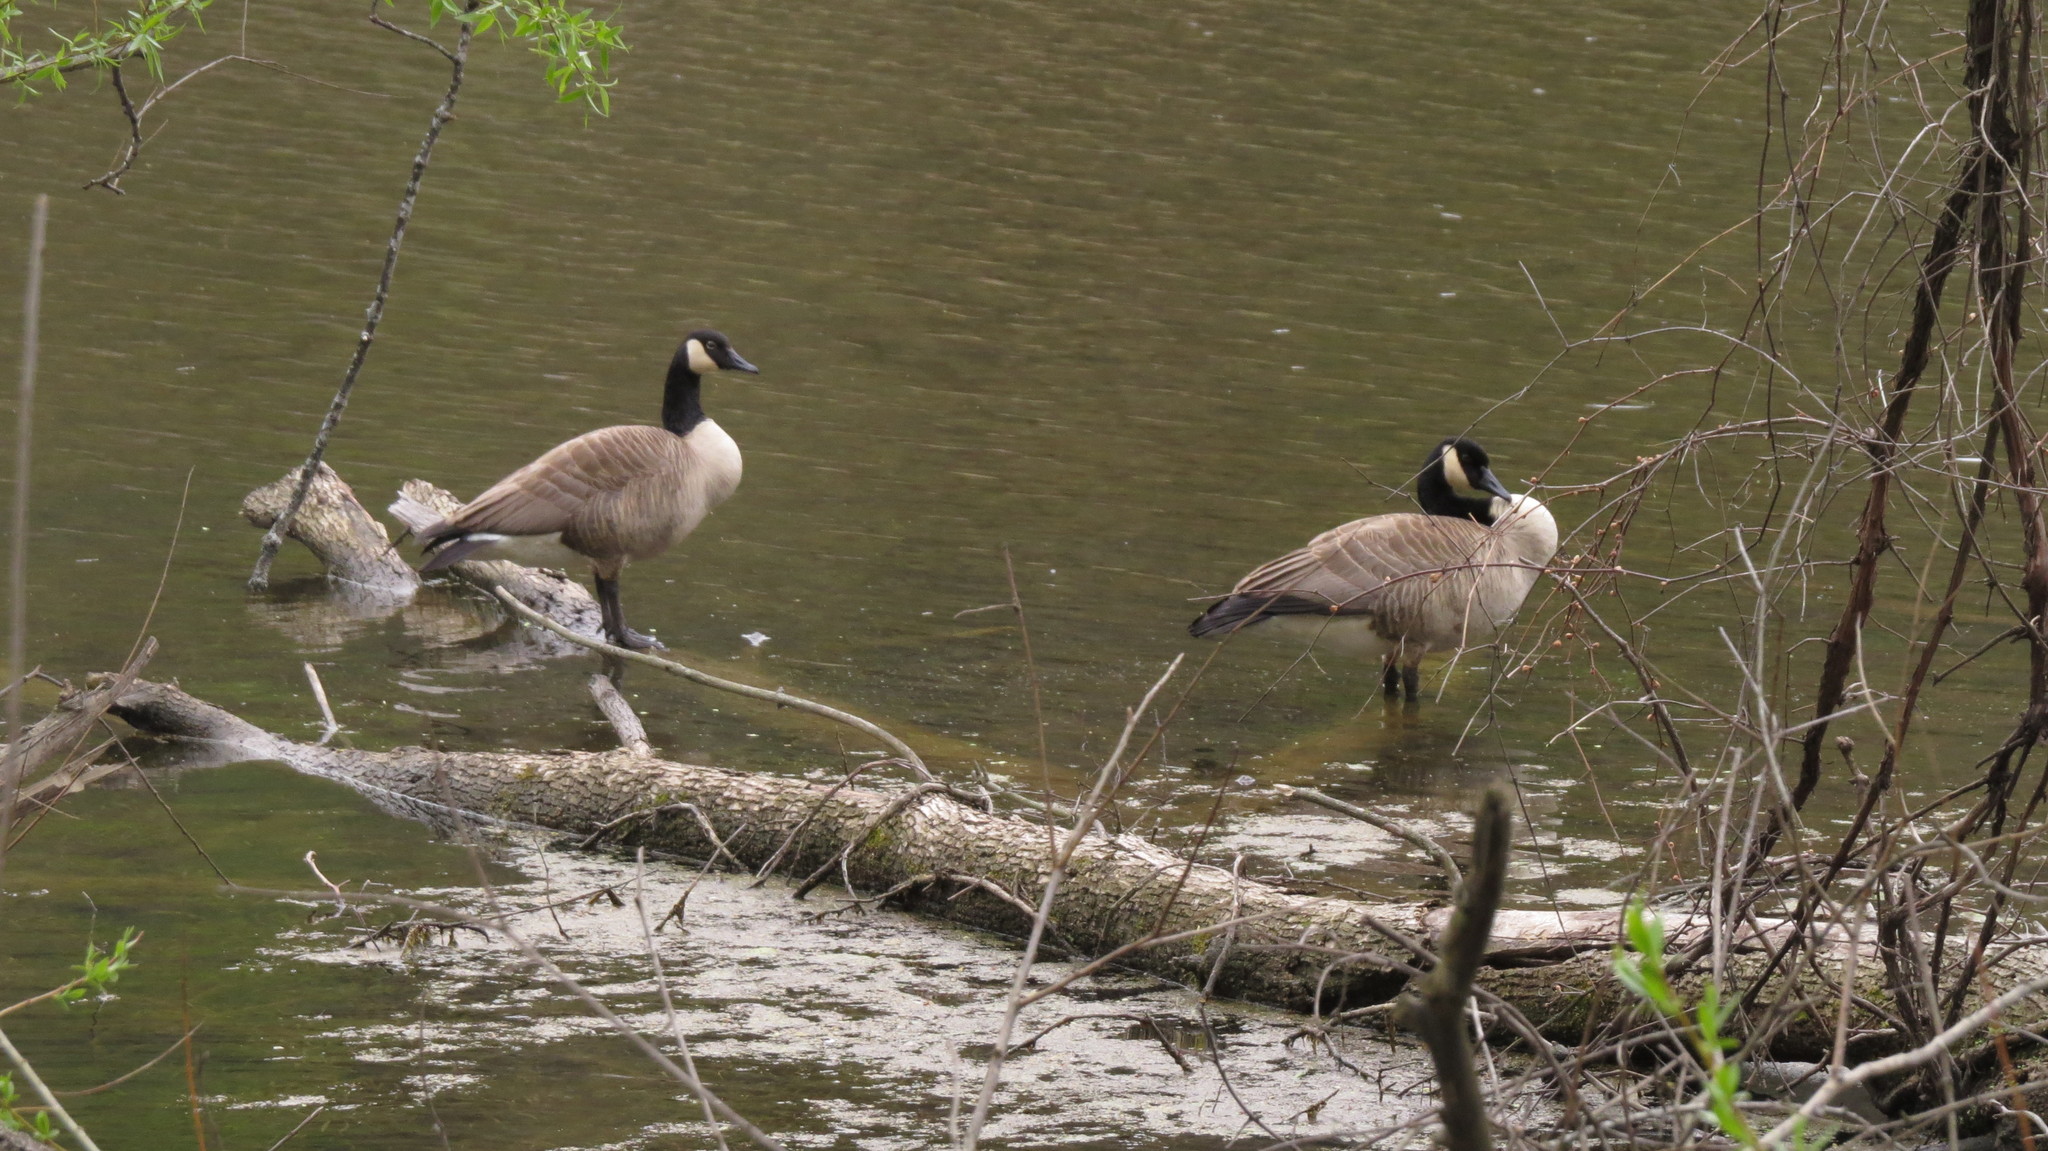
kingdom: Animalia
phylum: Chordata
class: Aves
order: Anseriformes
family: Anatidae
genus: Branta
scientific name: Branta canadensis
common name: Canada goose
